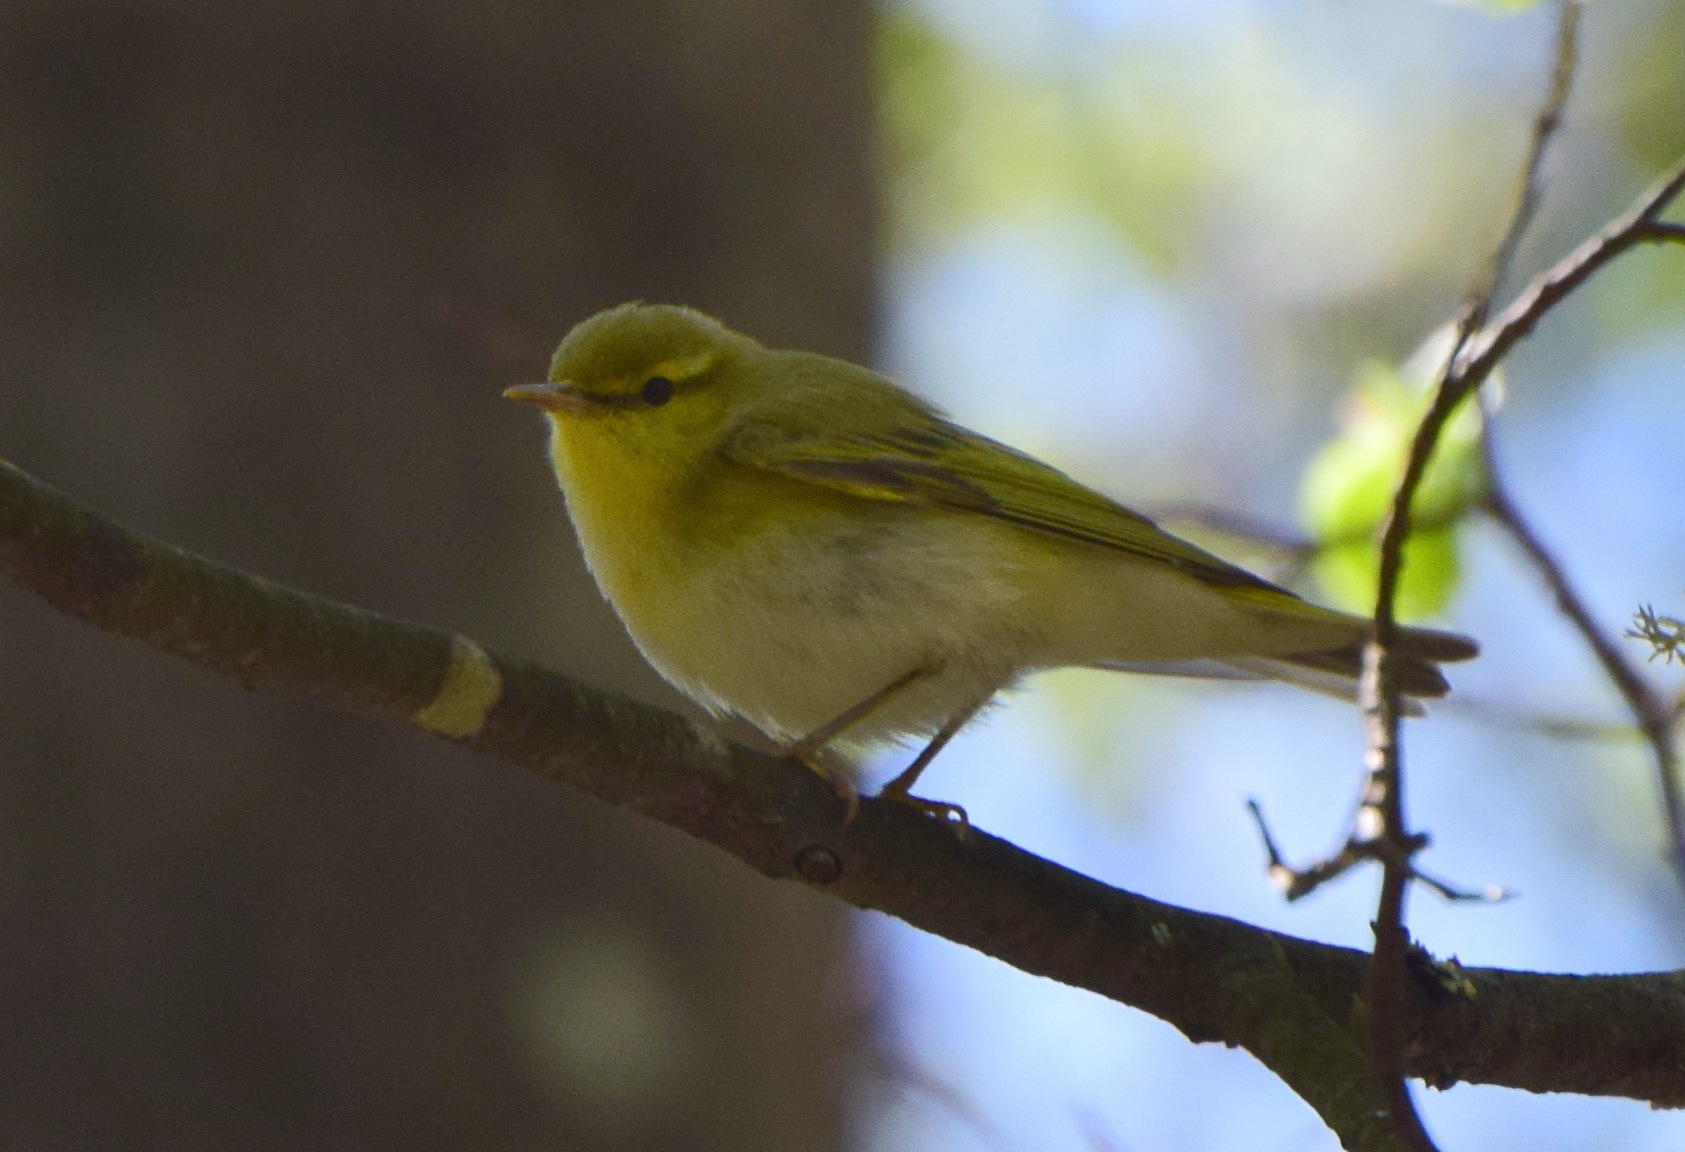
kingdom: Animalia
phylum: Chordata
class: Aves
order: Passeriformes
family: Phylloscopidae
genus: Phylloscopus
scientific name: Phylloscopus sibillatrix
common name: Wood warbler
